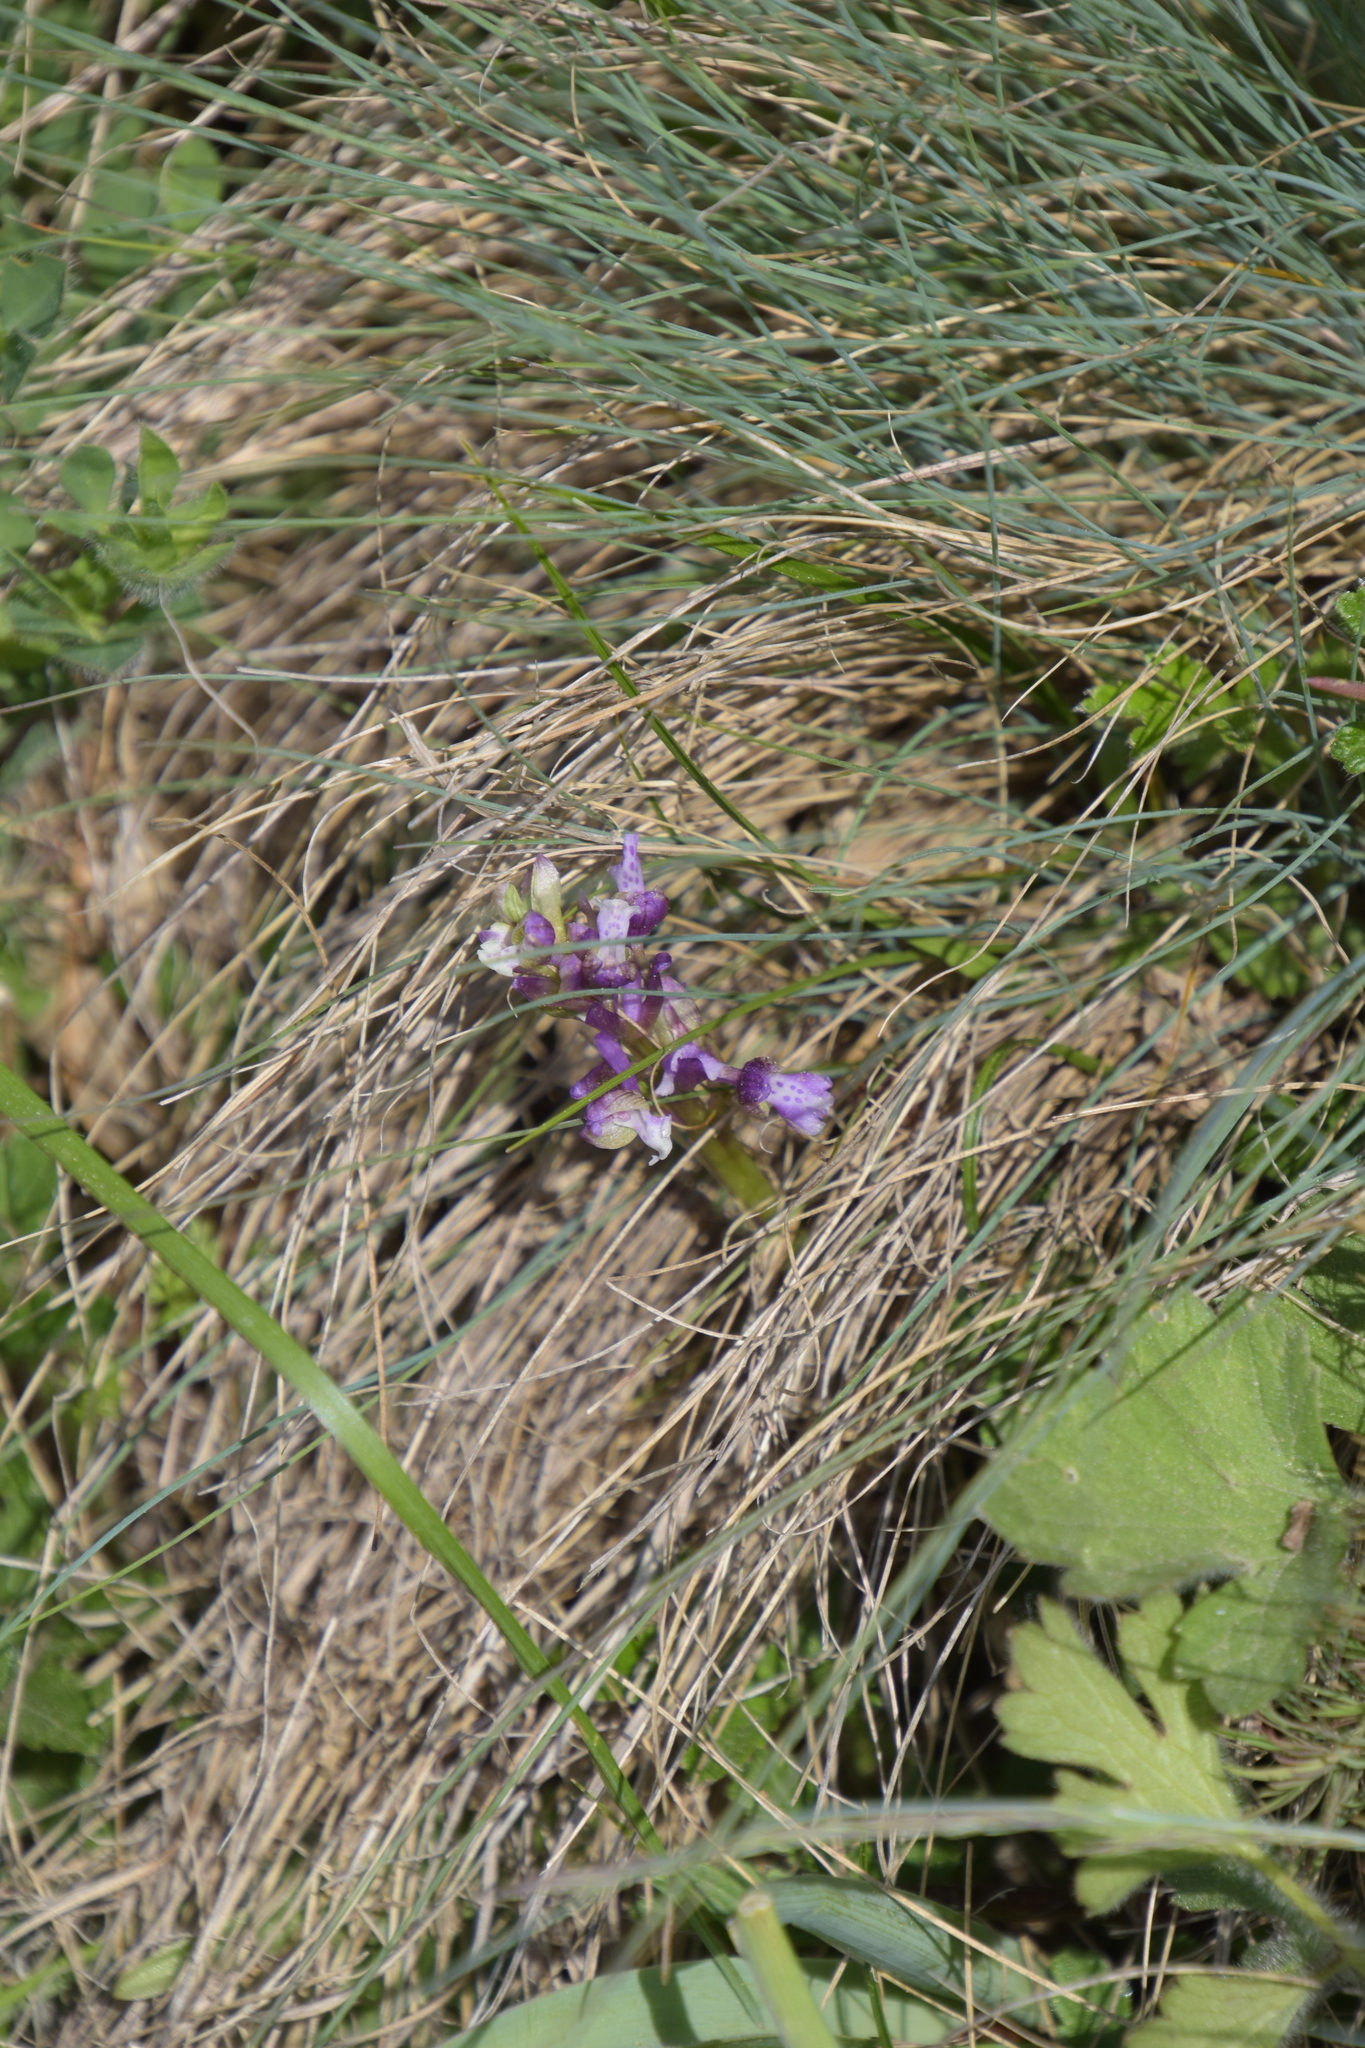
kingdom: Plantae
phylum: Tracheophyta
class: Liliopsida
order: Asparagales
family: Orchidaceae
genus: Anacamptis
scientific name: Anacamptis morio
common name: Green-winged orchid
